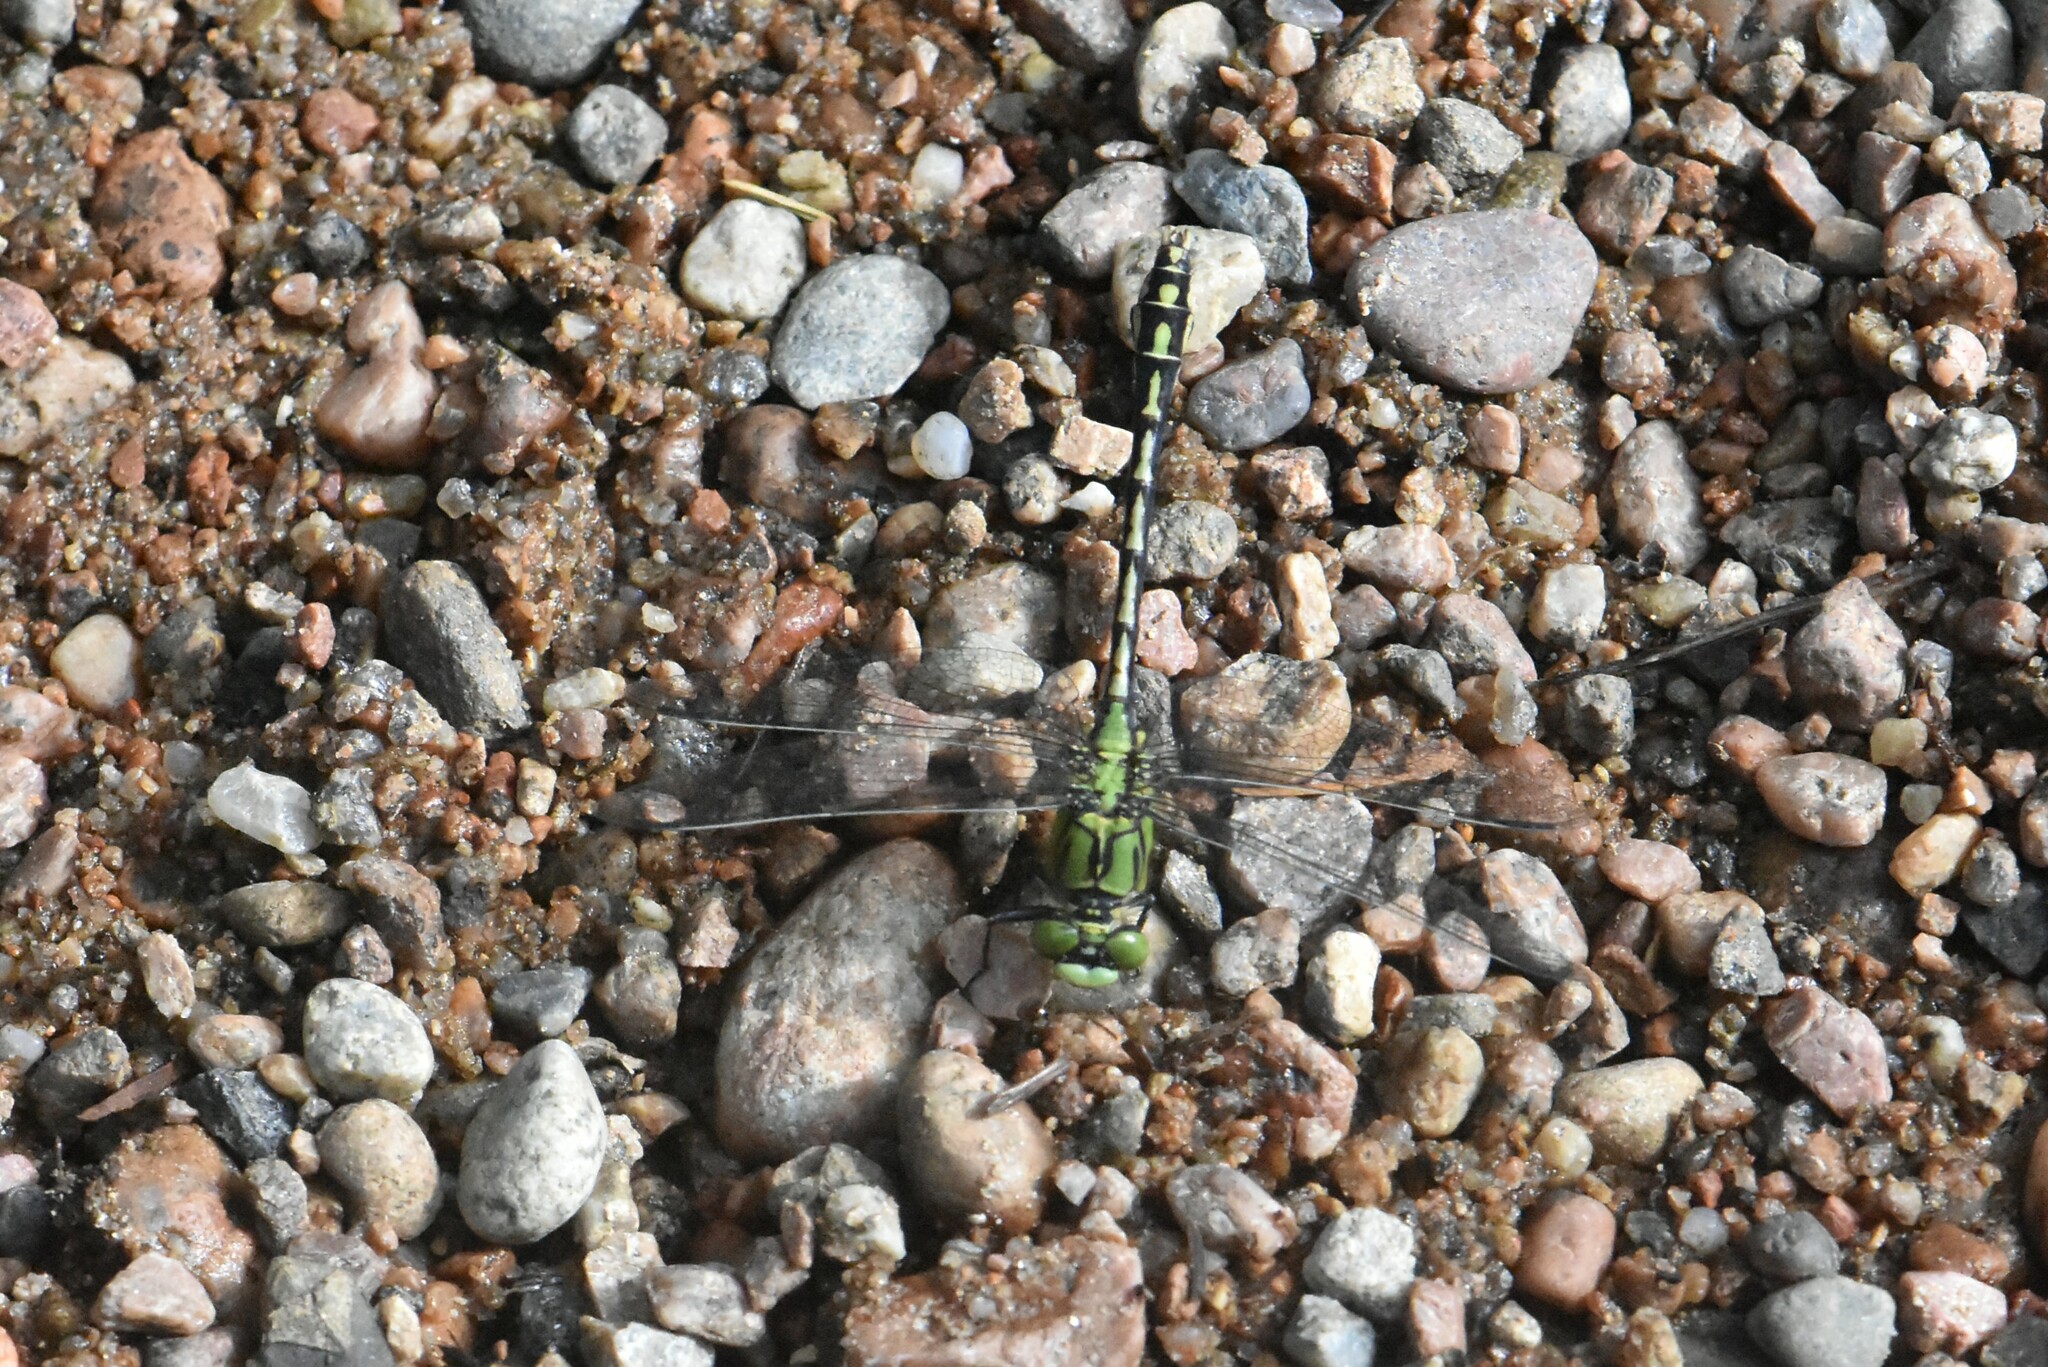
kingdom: Animalia
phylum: Arthropoda
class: Insecta
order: Odonata
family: Gomphidae
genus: Ophiogomphus
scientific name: Ophiogomphus cecilia
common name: Green snaketail
